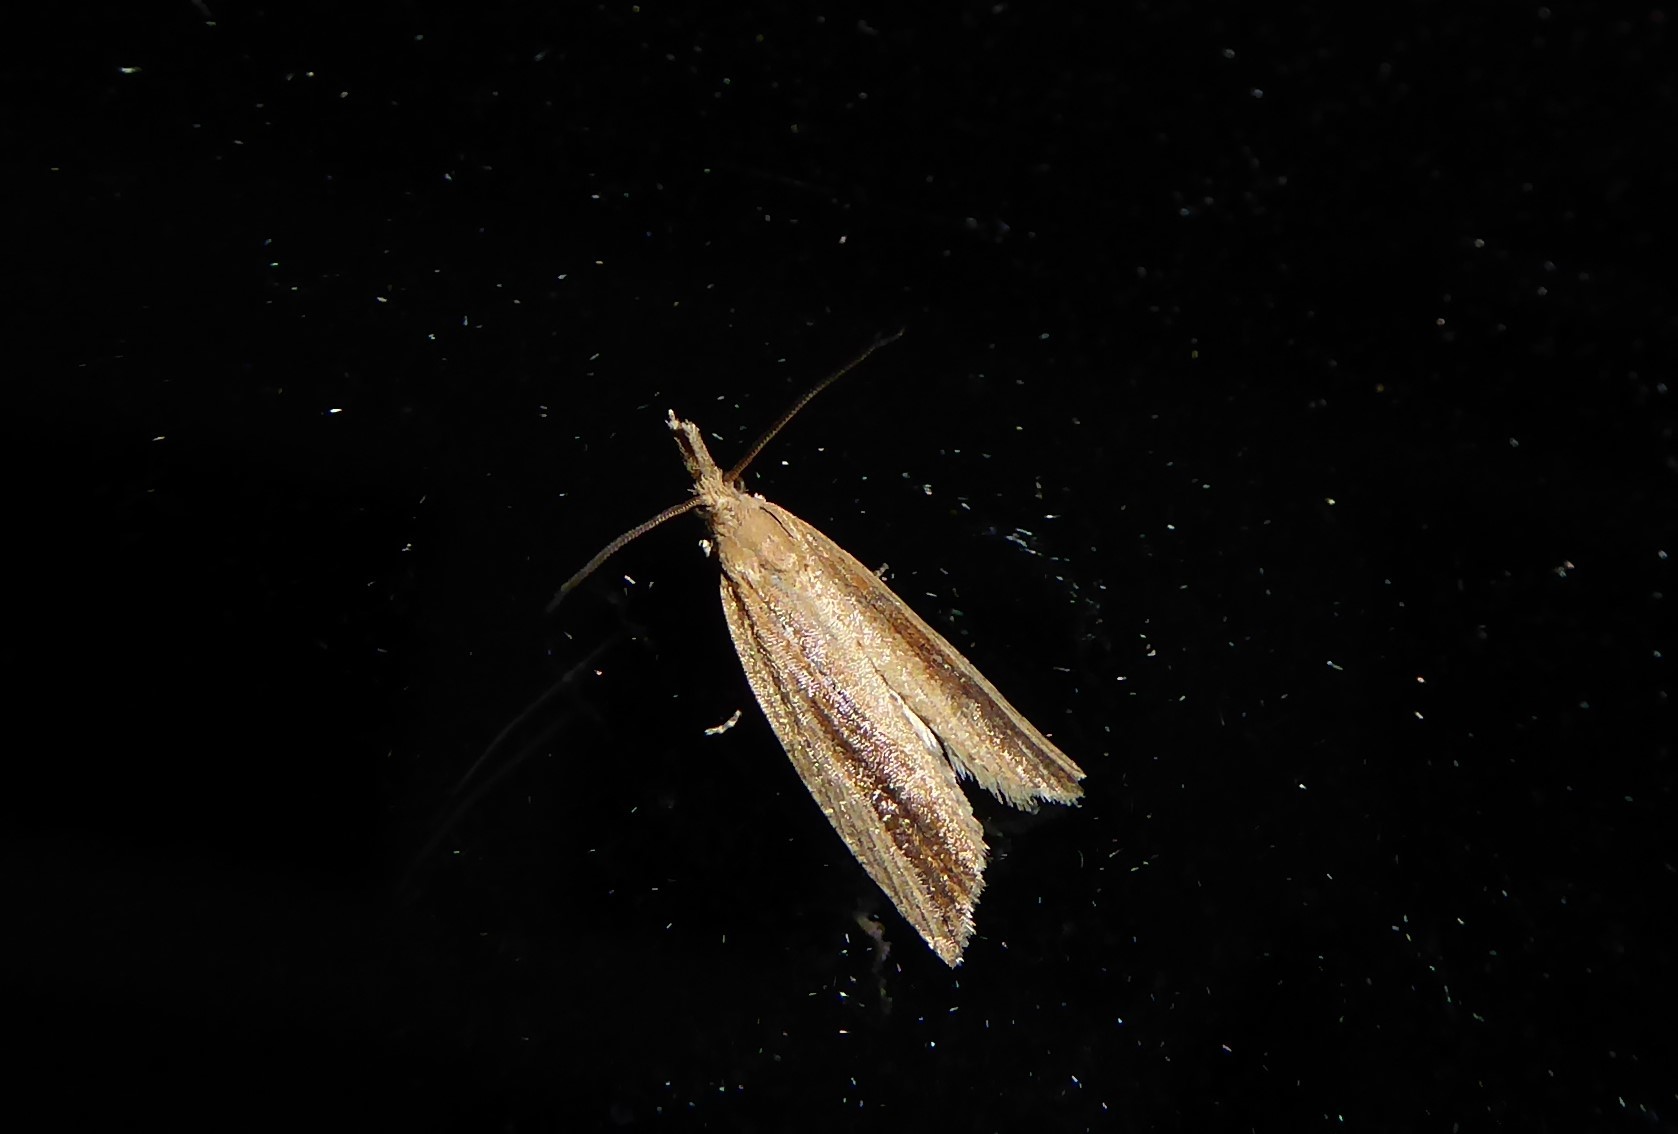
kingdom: Animalia
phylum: Arthropoda
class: Insecta
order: Lepidoptera
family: Tortricidae
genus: Bactra
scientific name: Bactra noteraula
